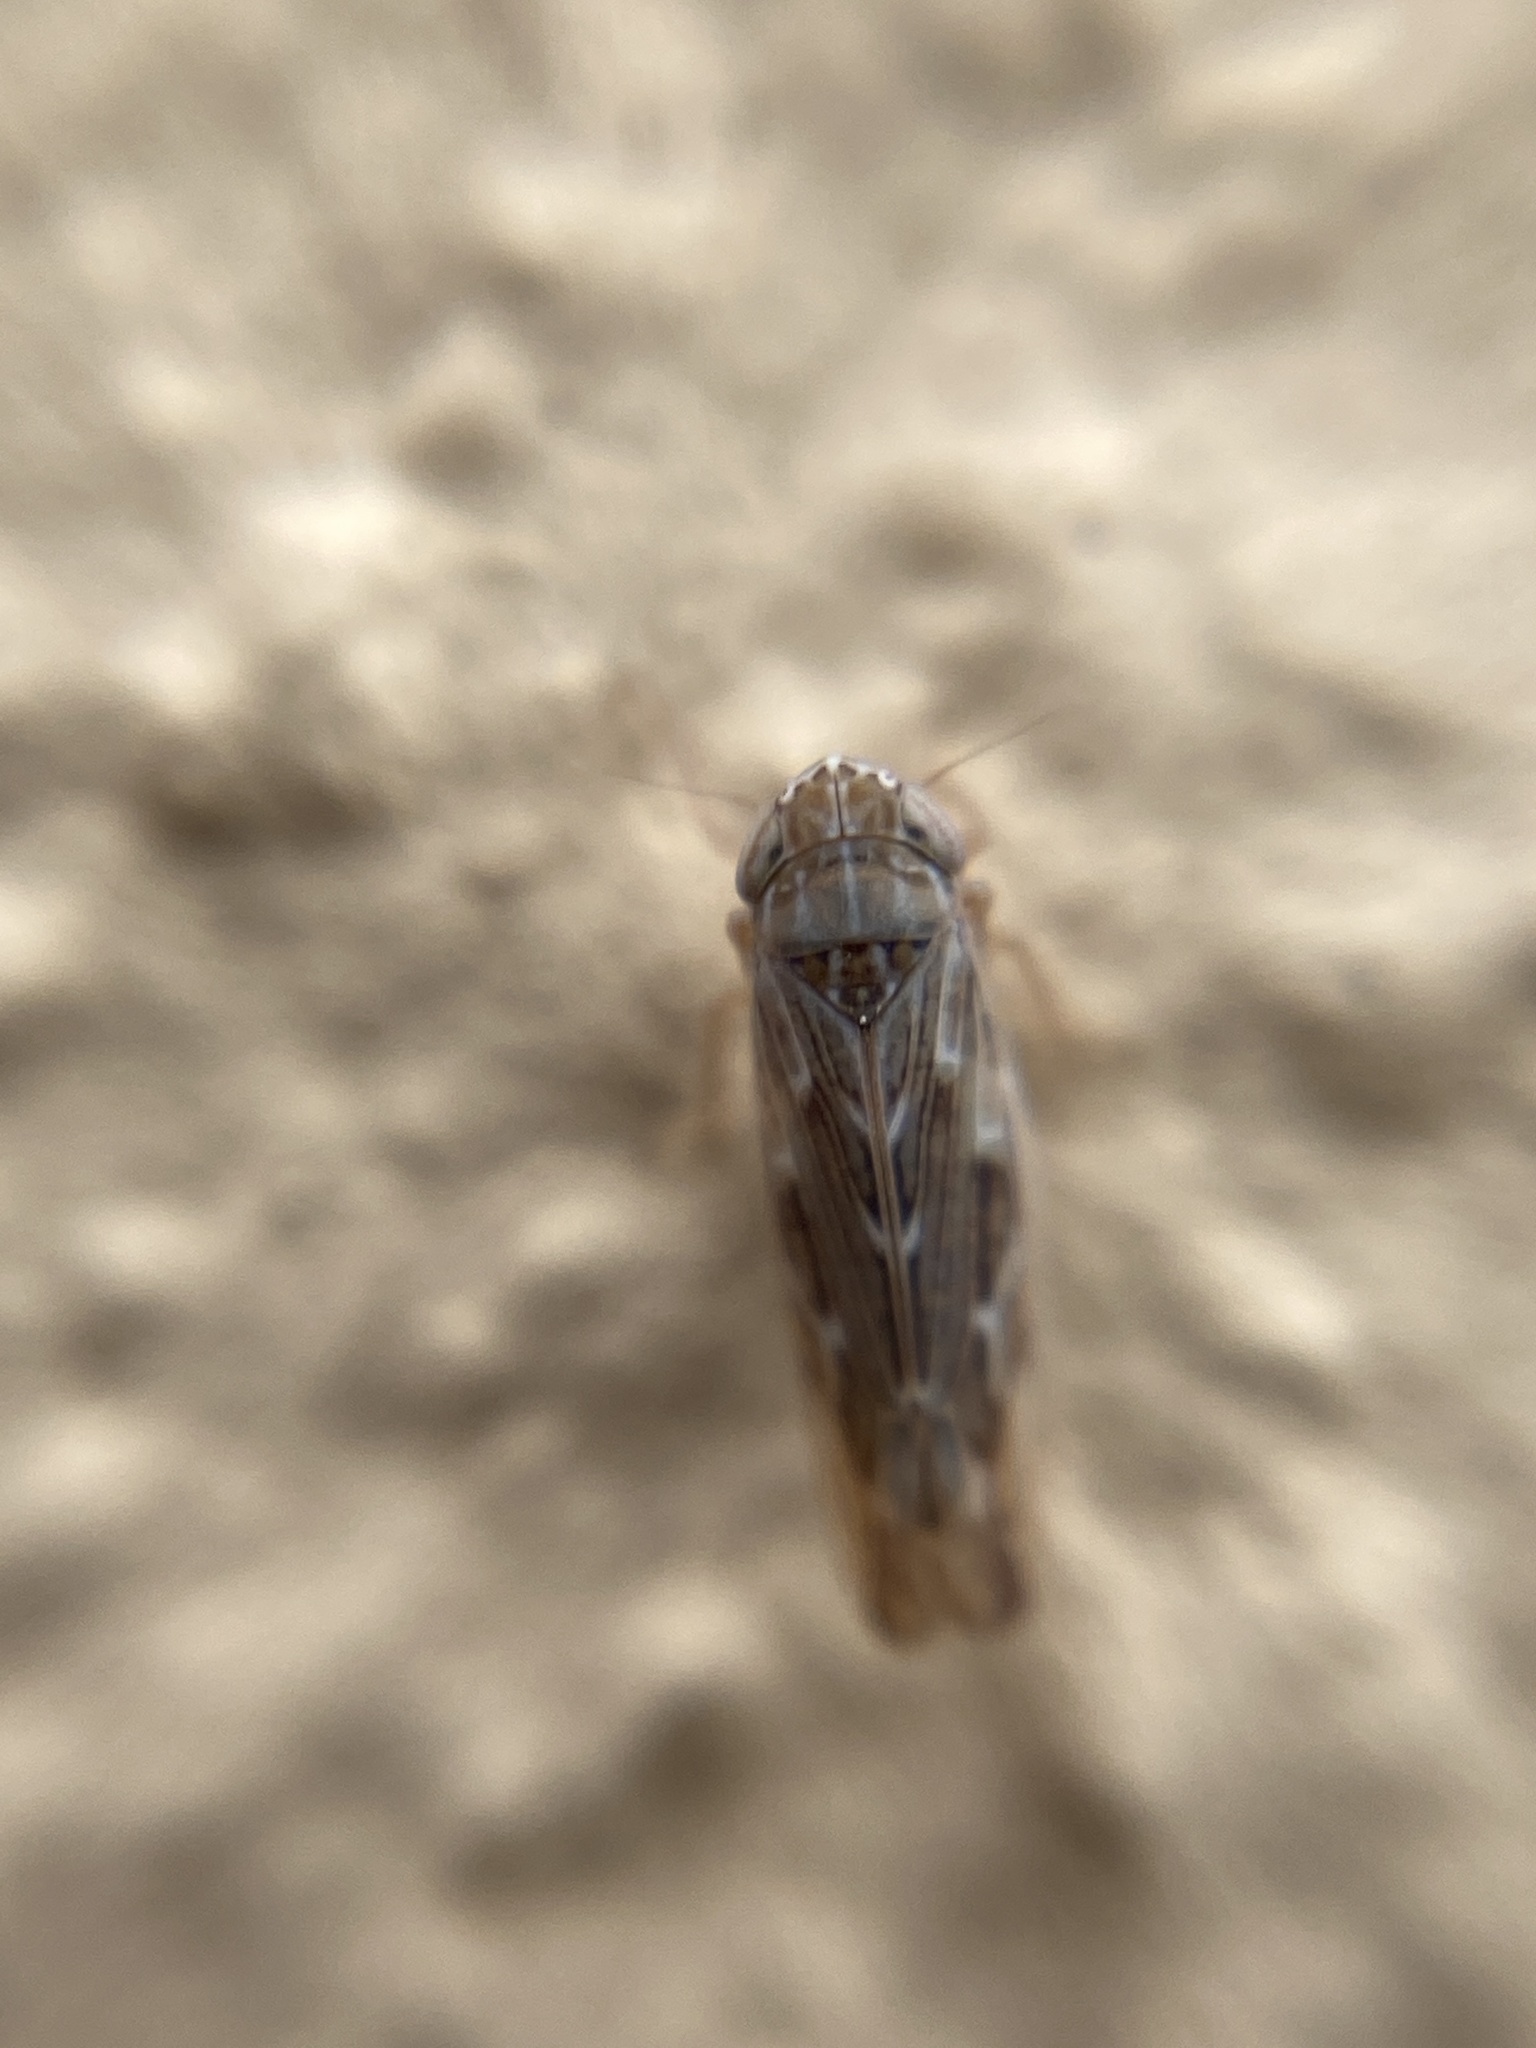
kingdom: Animalia
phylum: Arthropoda
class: Insecta
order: Hemiptera
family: Cicadellidae
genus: Psammotettix
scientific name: Psammotettix alienus
